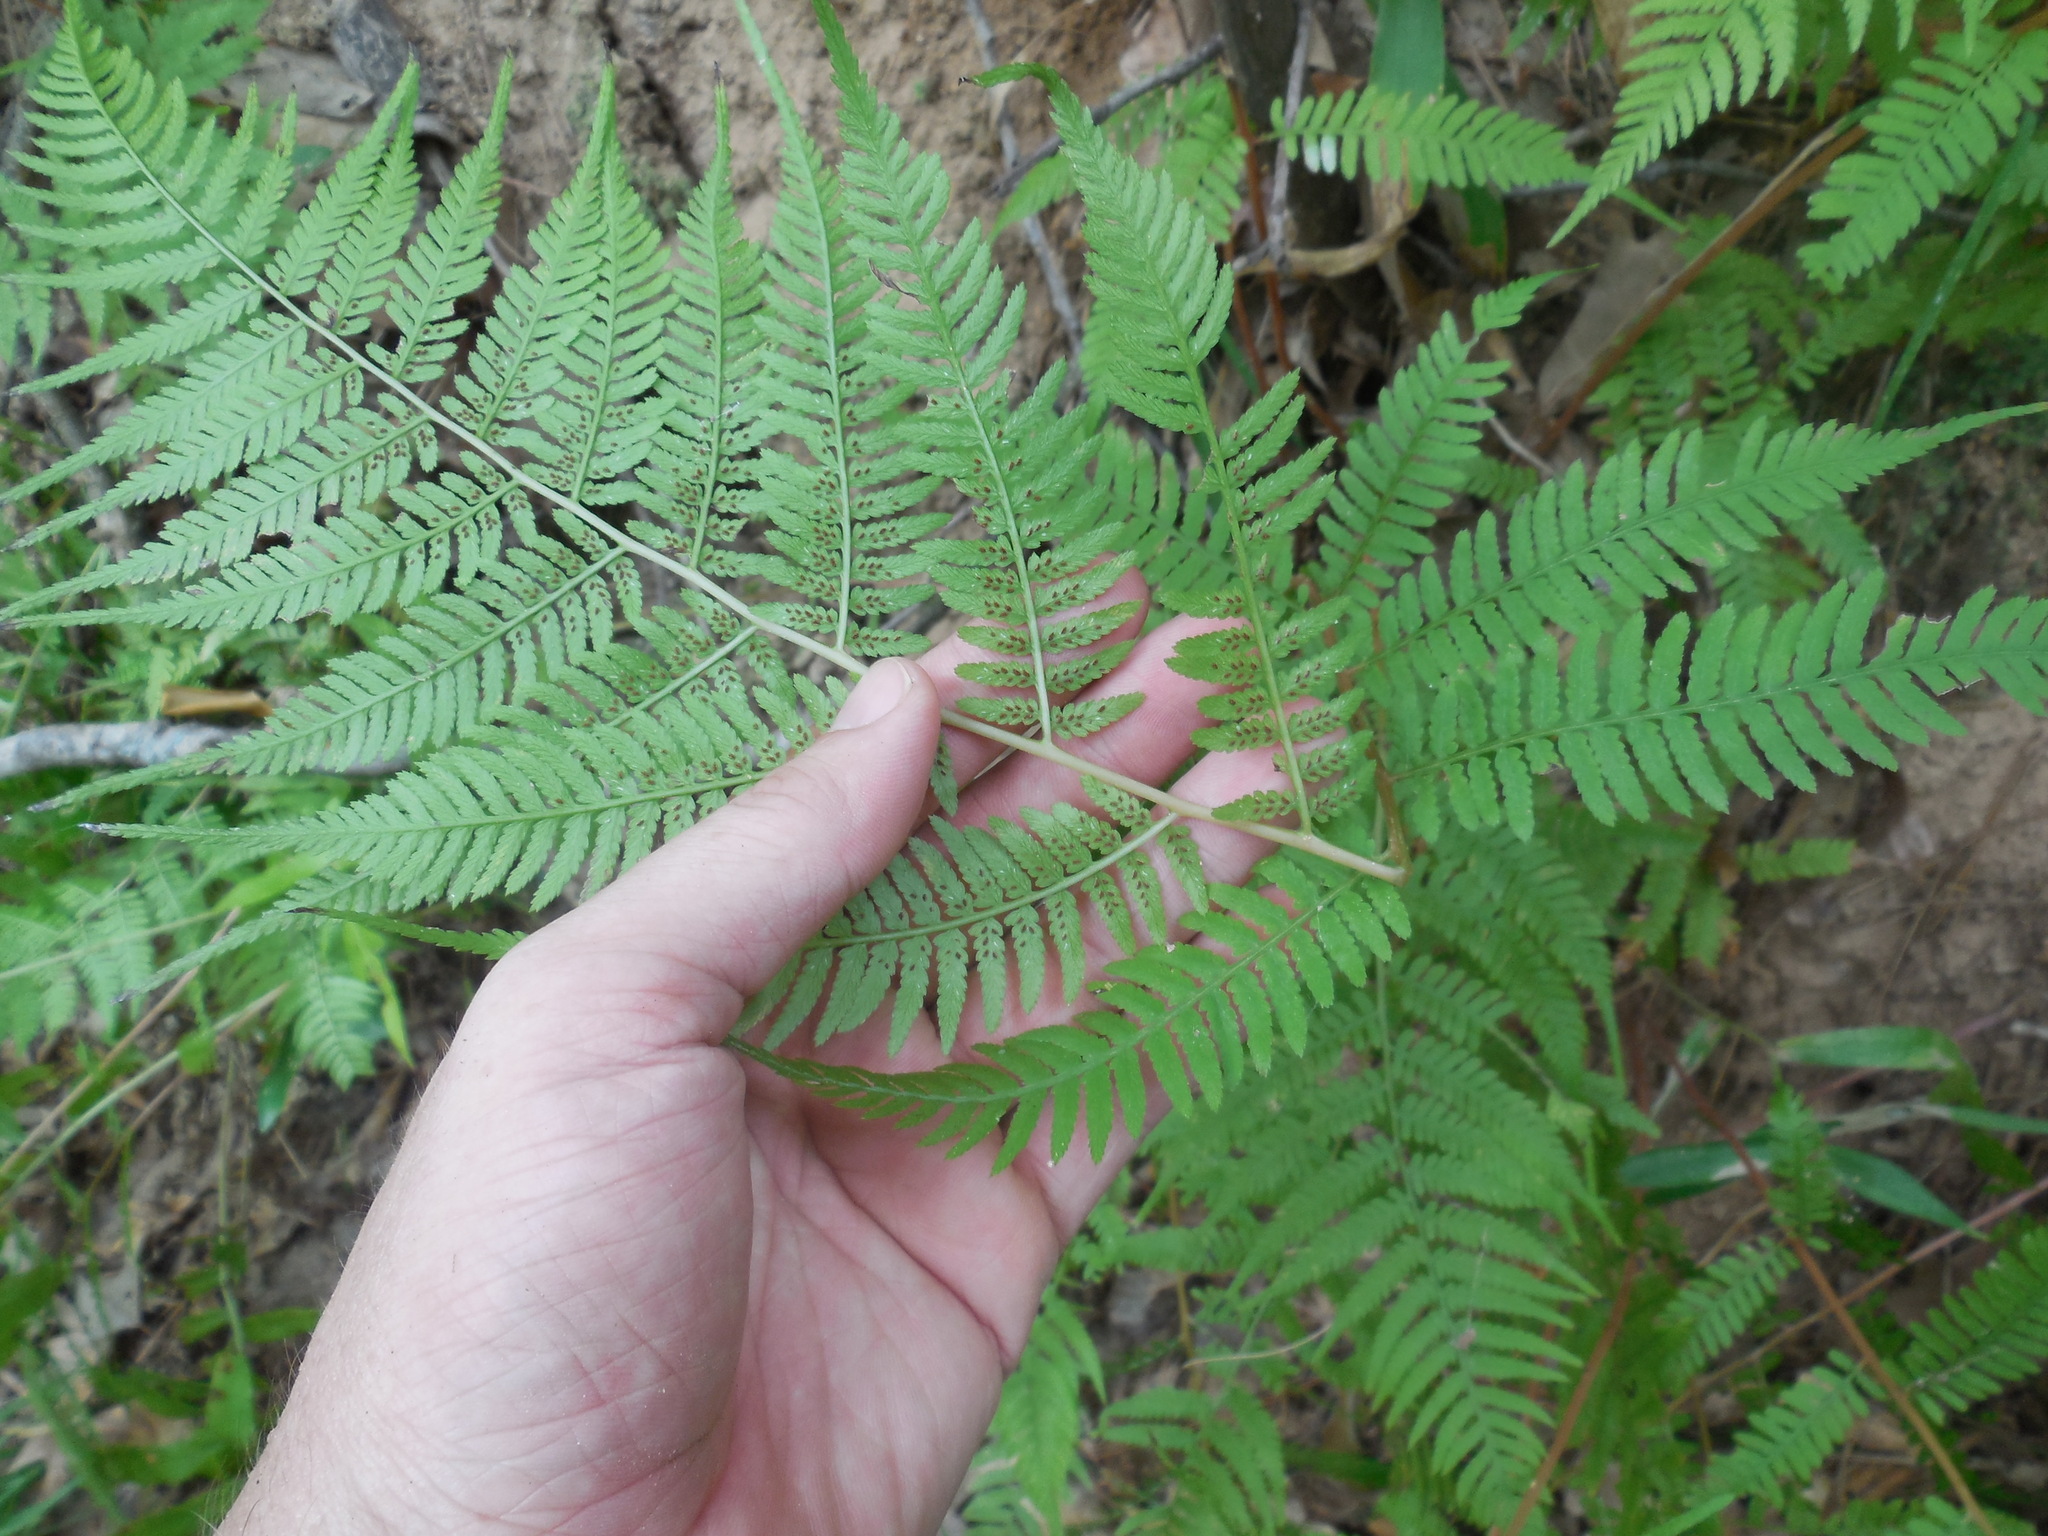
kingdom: Plantae
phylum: Tracheophyta
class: Polypodiopsida
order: Polypodiales
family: Athyriaceae
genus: Athyrium
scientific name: Athyrium asplenioides
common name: Southern lady fern
